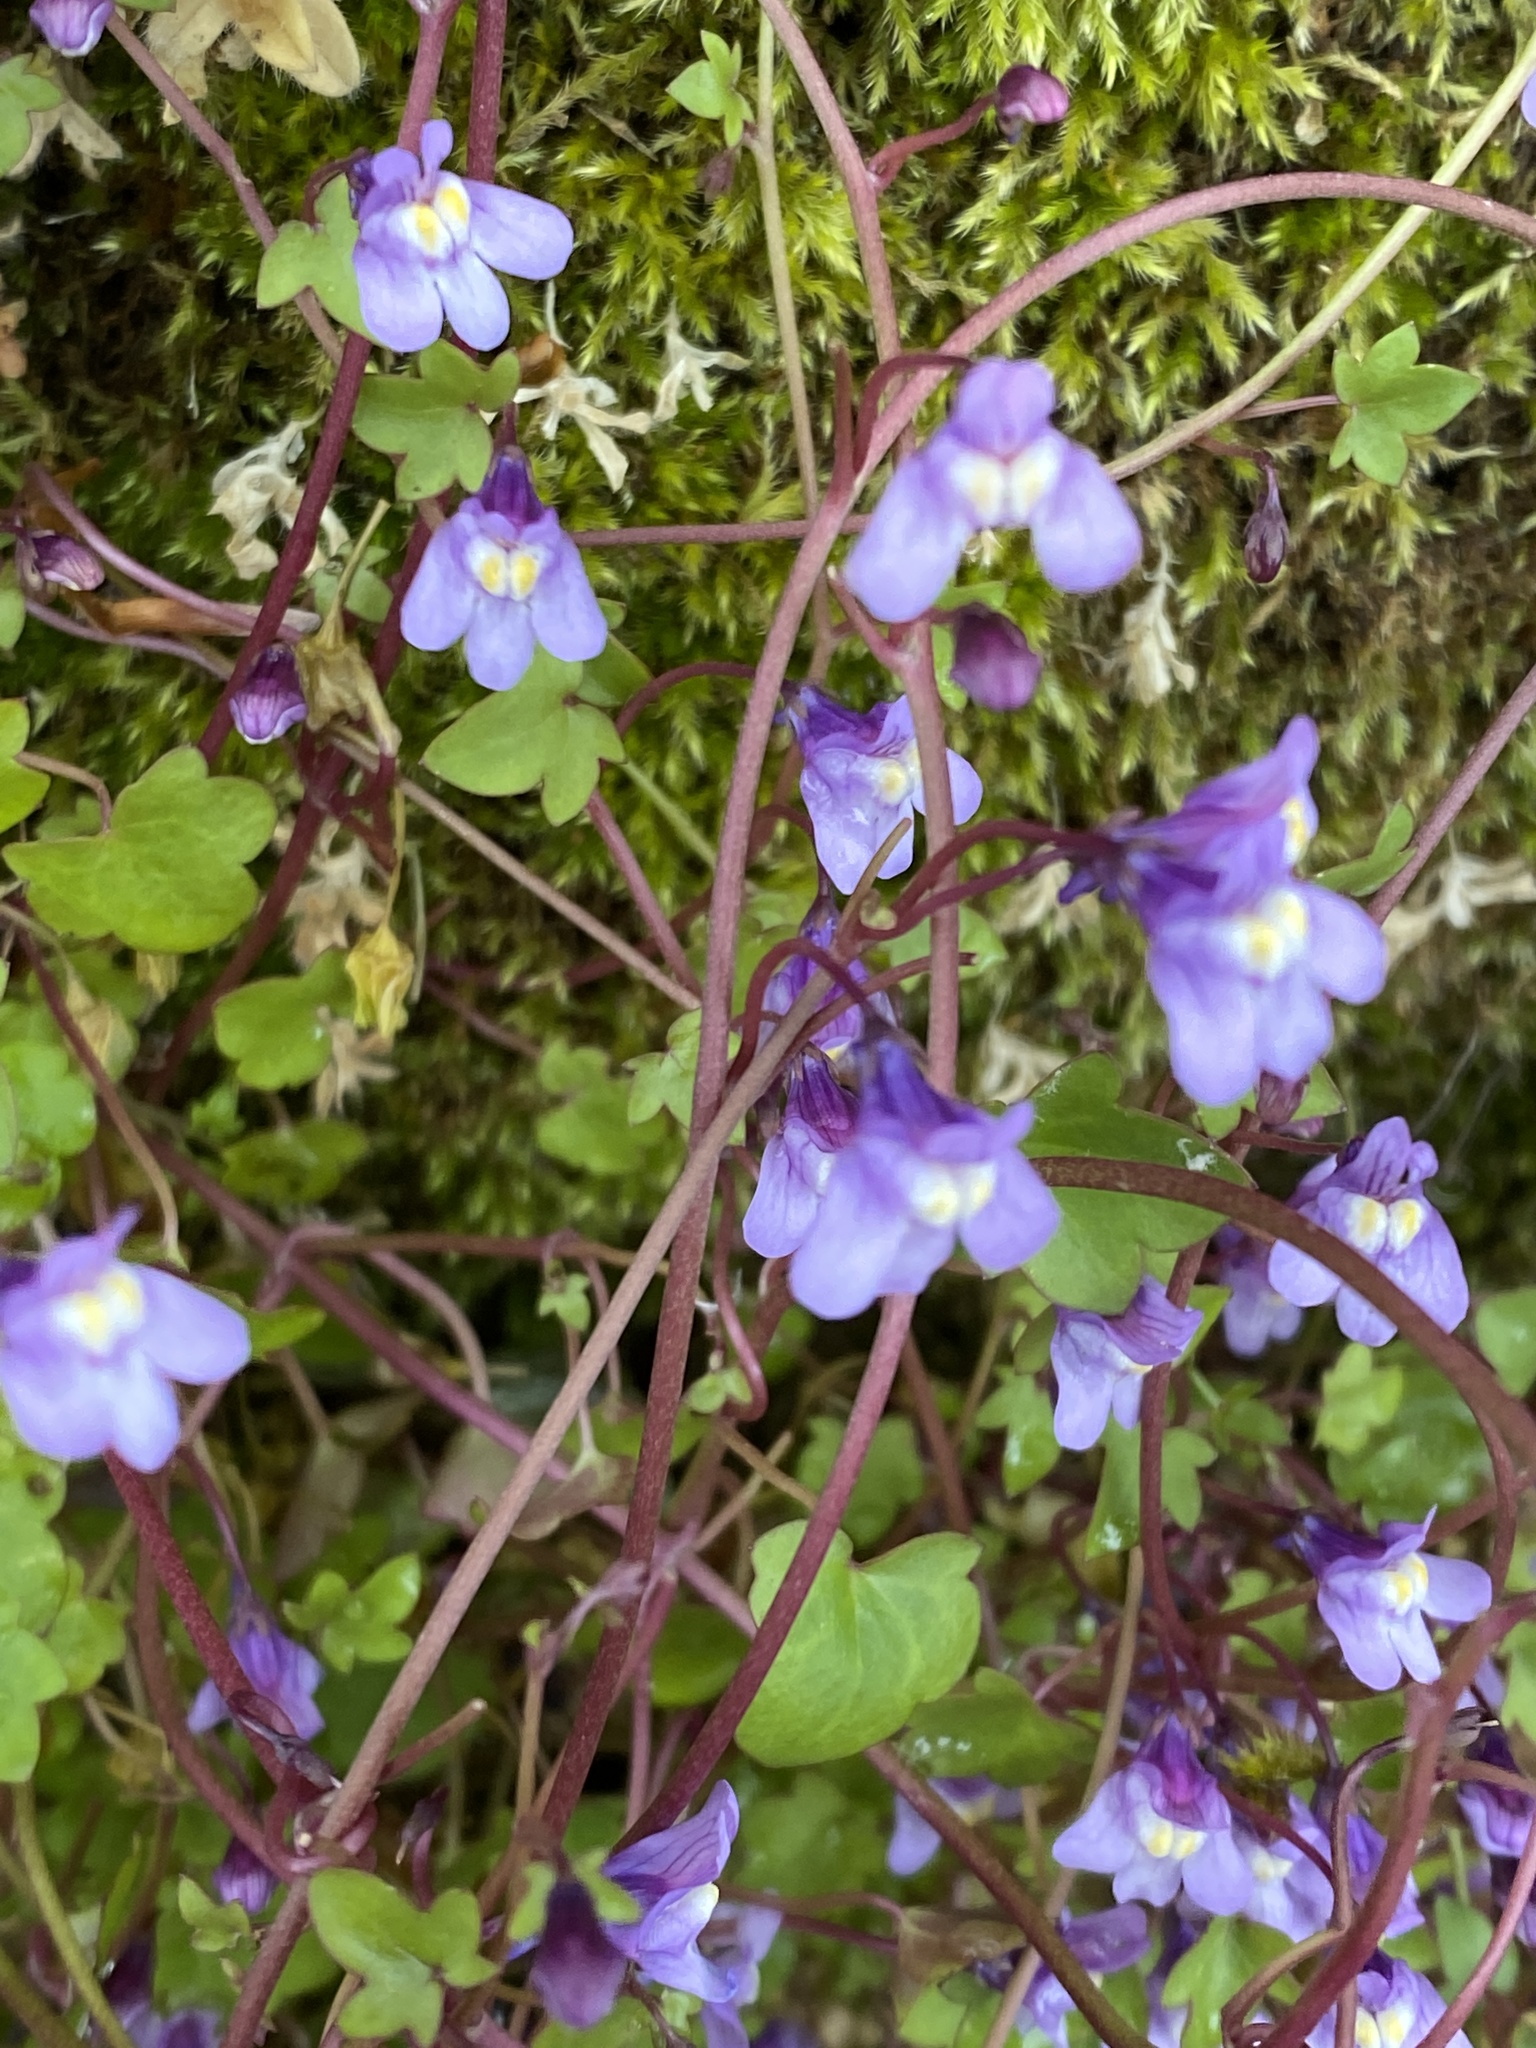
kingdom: Plantae
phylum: Tracheophyta
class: Magnoliopsida
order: Lamiales
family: Plantaginaceae
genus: Cymbalaria
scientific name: Cymbalaria muralis
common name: Ivy-leaved toadflax
